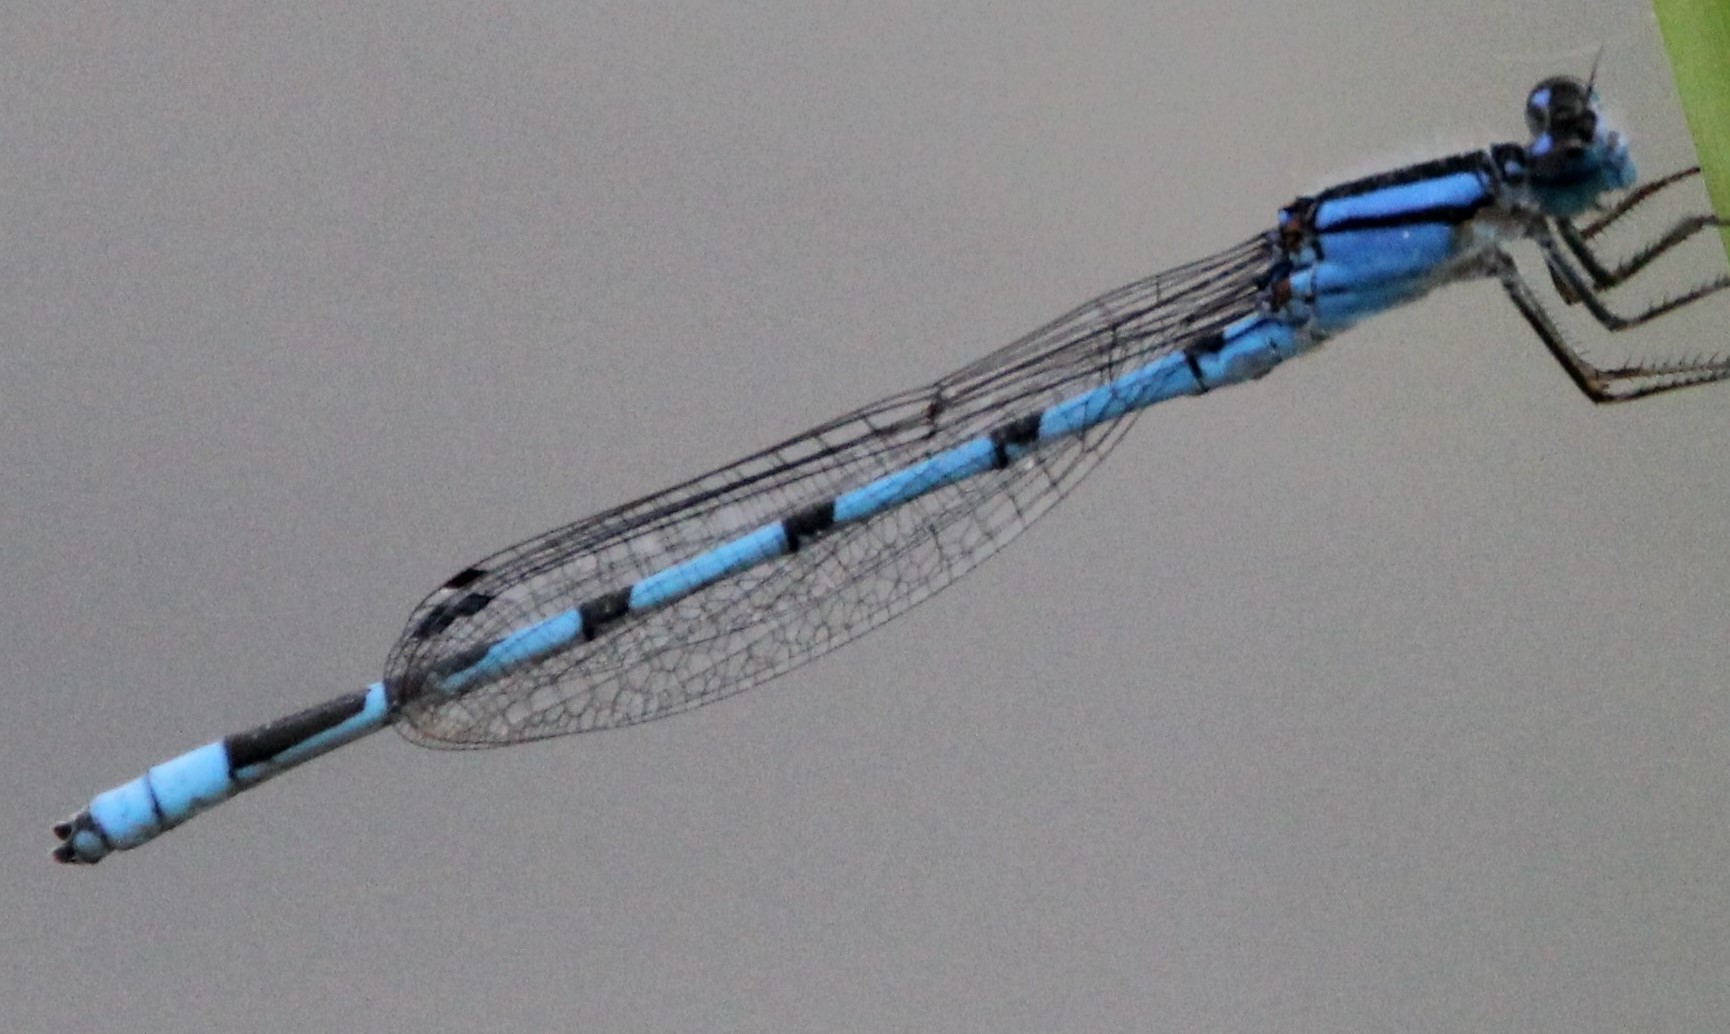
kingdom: Animalia
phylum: Arthropoda
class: Insecta
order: Odonata
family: Coenagrionidae
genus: Enallagma
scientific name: Enallagma civile
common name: Damselfly
